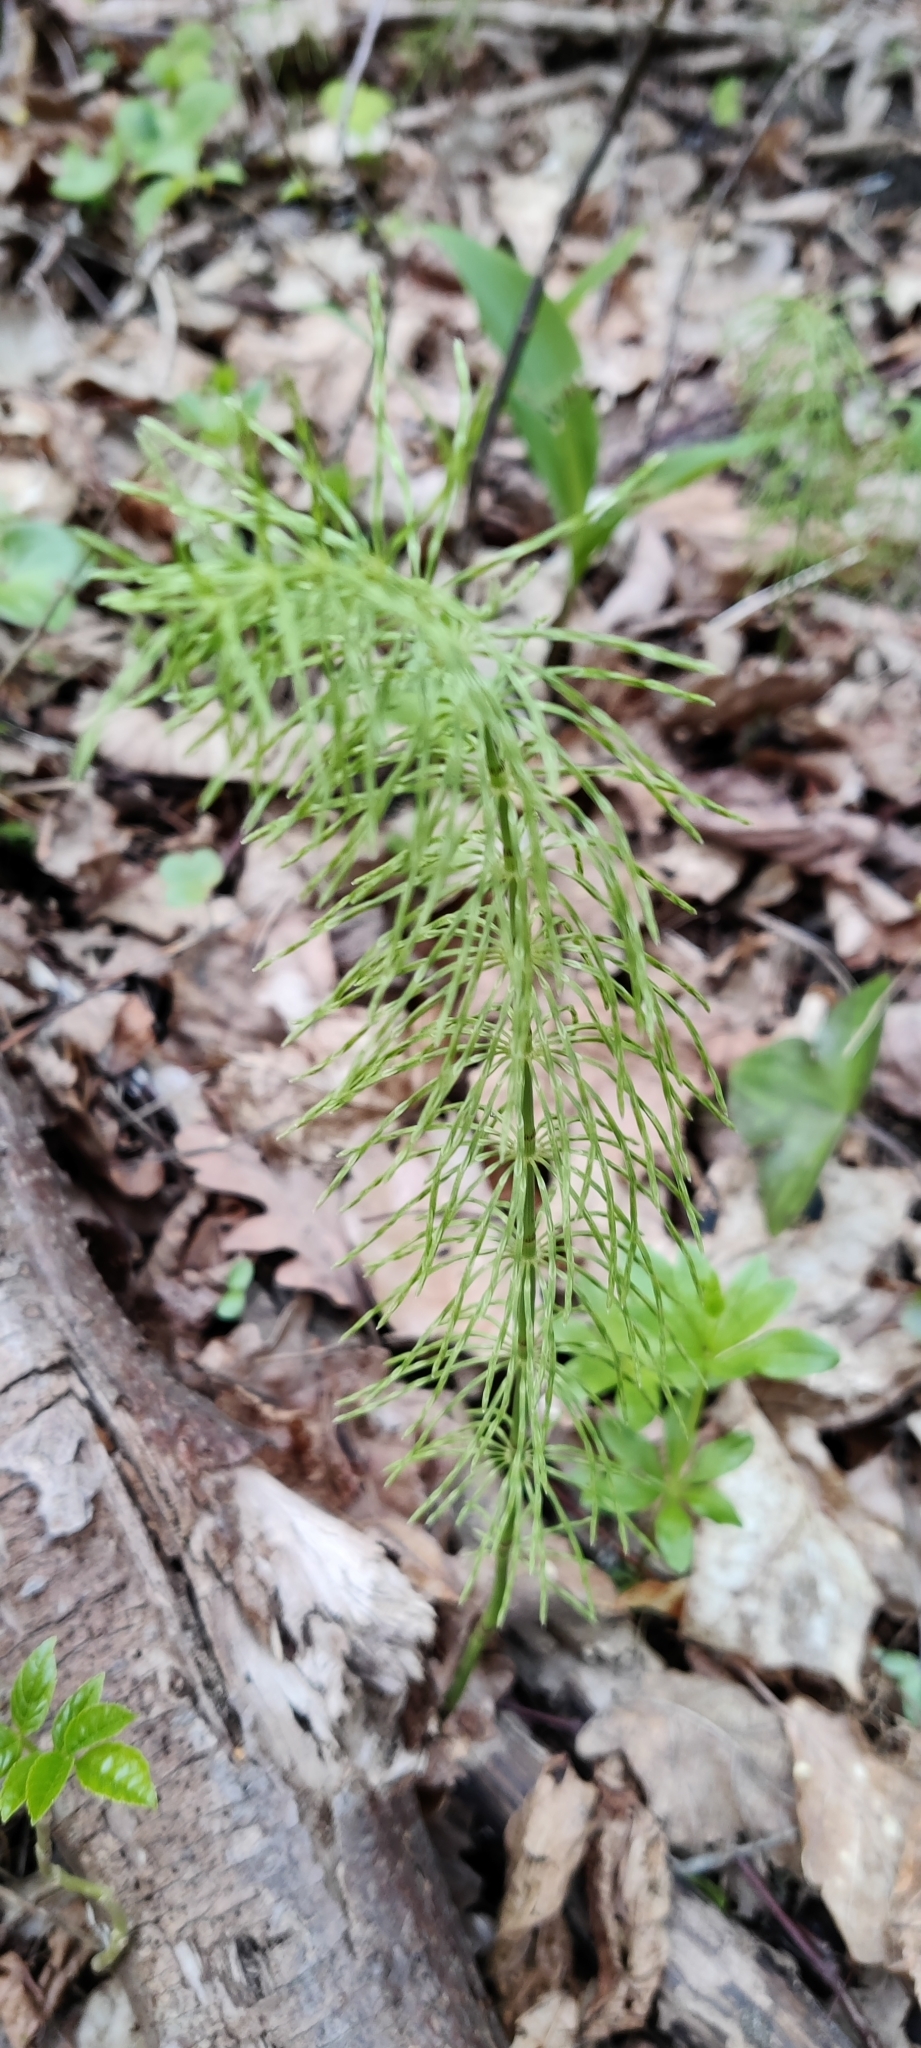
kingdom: Plantae
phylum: Tracheophyta
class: Polypodiopsida
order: Equisetales
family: Equisetaceae
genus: Equisetum
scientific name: Equisetum pratense
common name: Meadow horsetail
